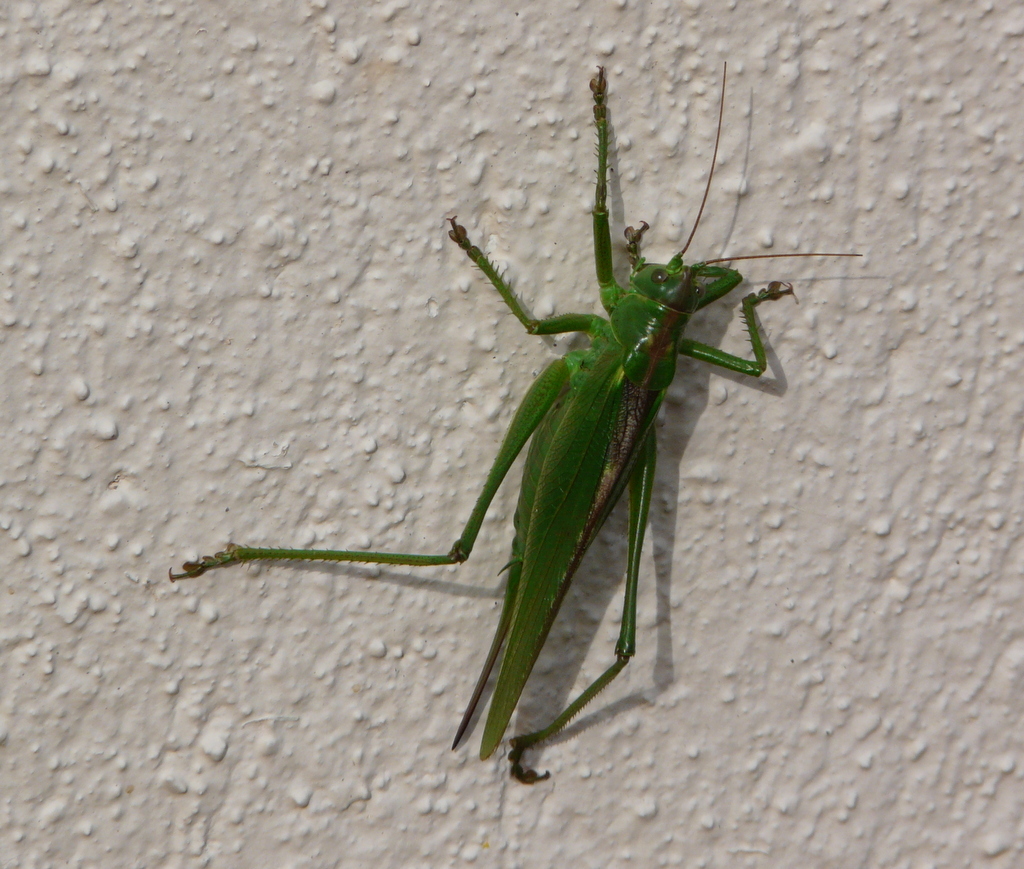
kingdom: Animalia
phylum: Arthropoda
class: Insecta
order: Orthoptera
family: Tettigoniidae
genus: Tettigonia
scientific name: Tettigonia viridissima
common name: Great green bush-cricket
